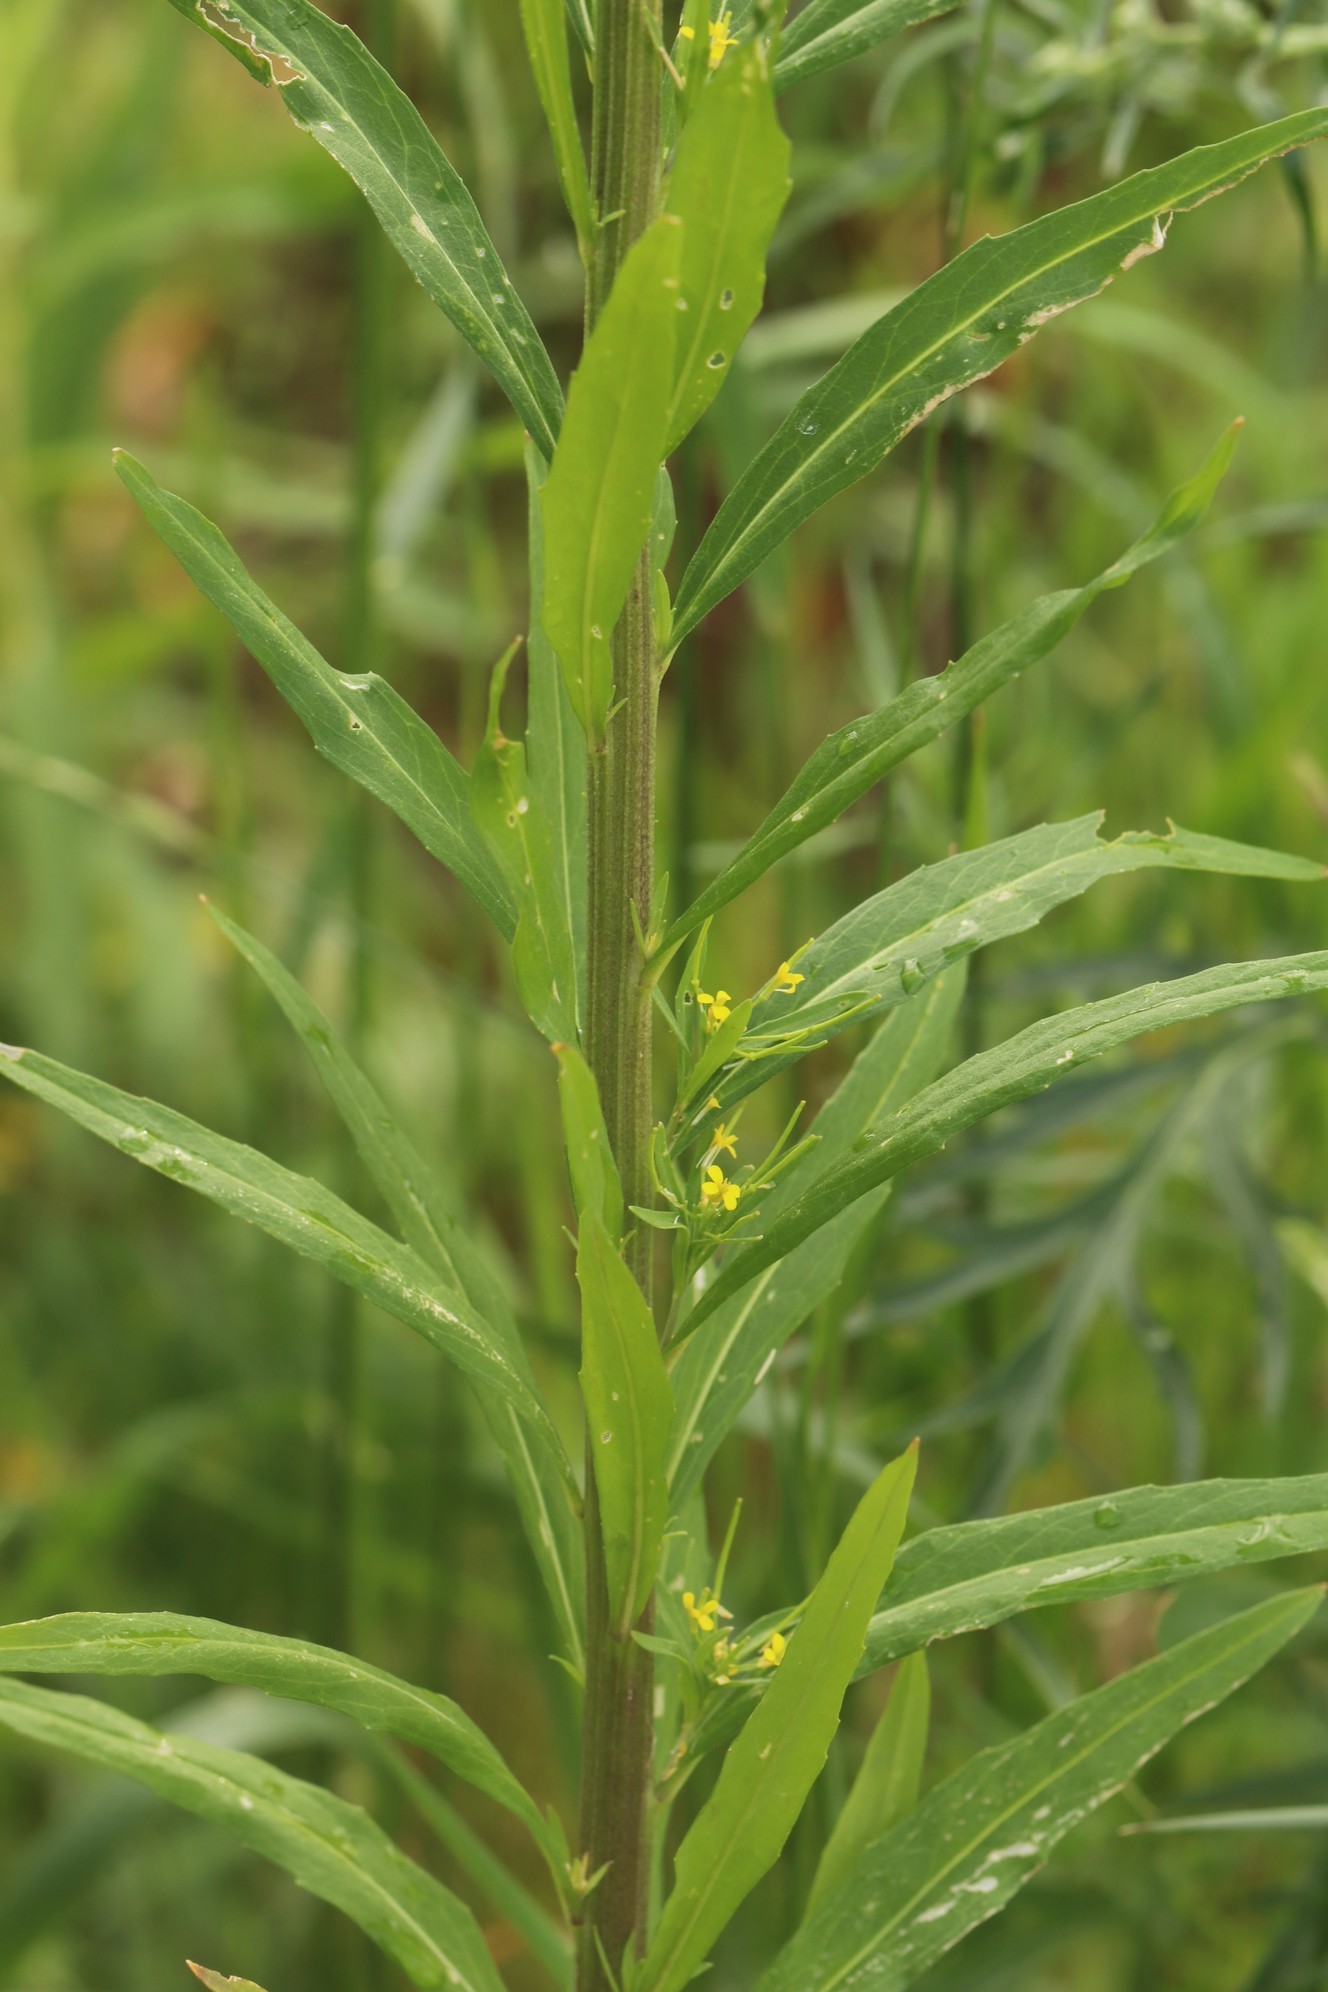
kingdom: Plantae
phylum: Tracheophyta
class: Magnoliopsida
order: Brassicales
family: Brassicaceae
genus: Erysimum
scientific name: Erysimum cheiranthoides
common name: Treacle mustard
